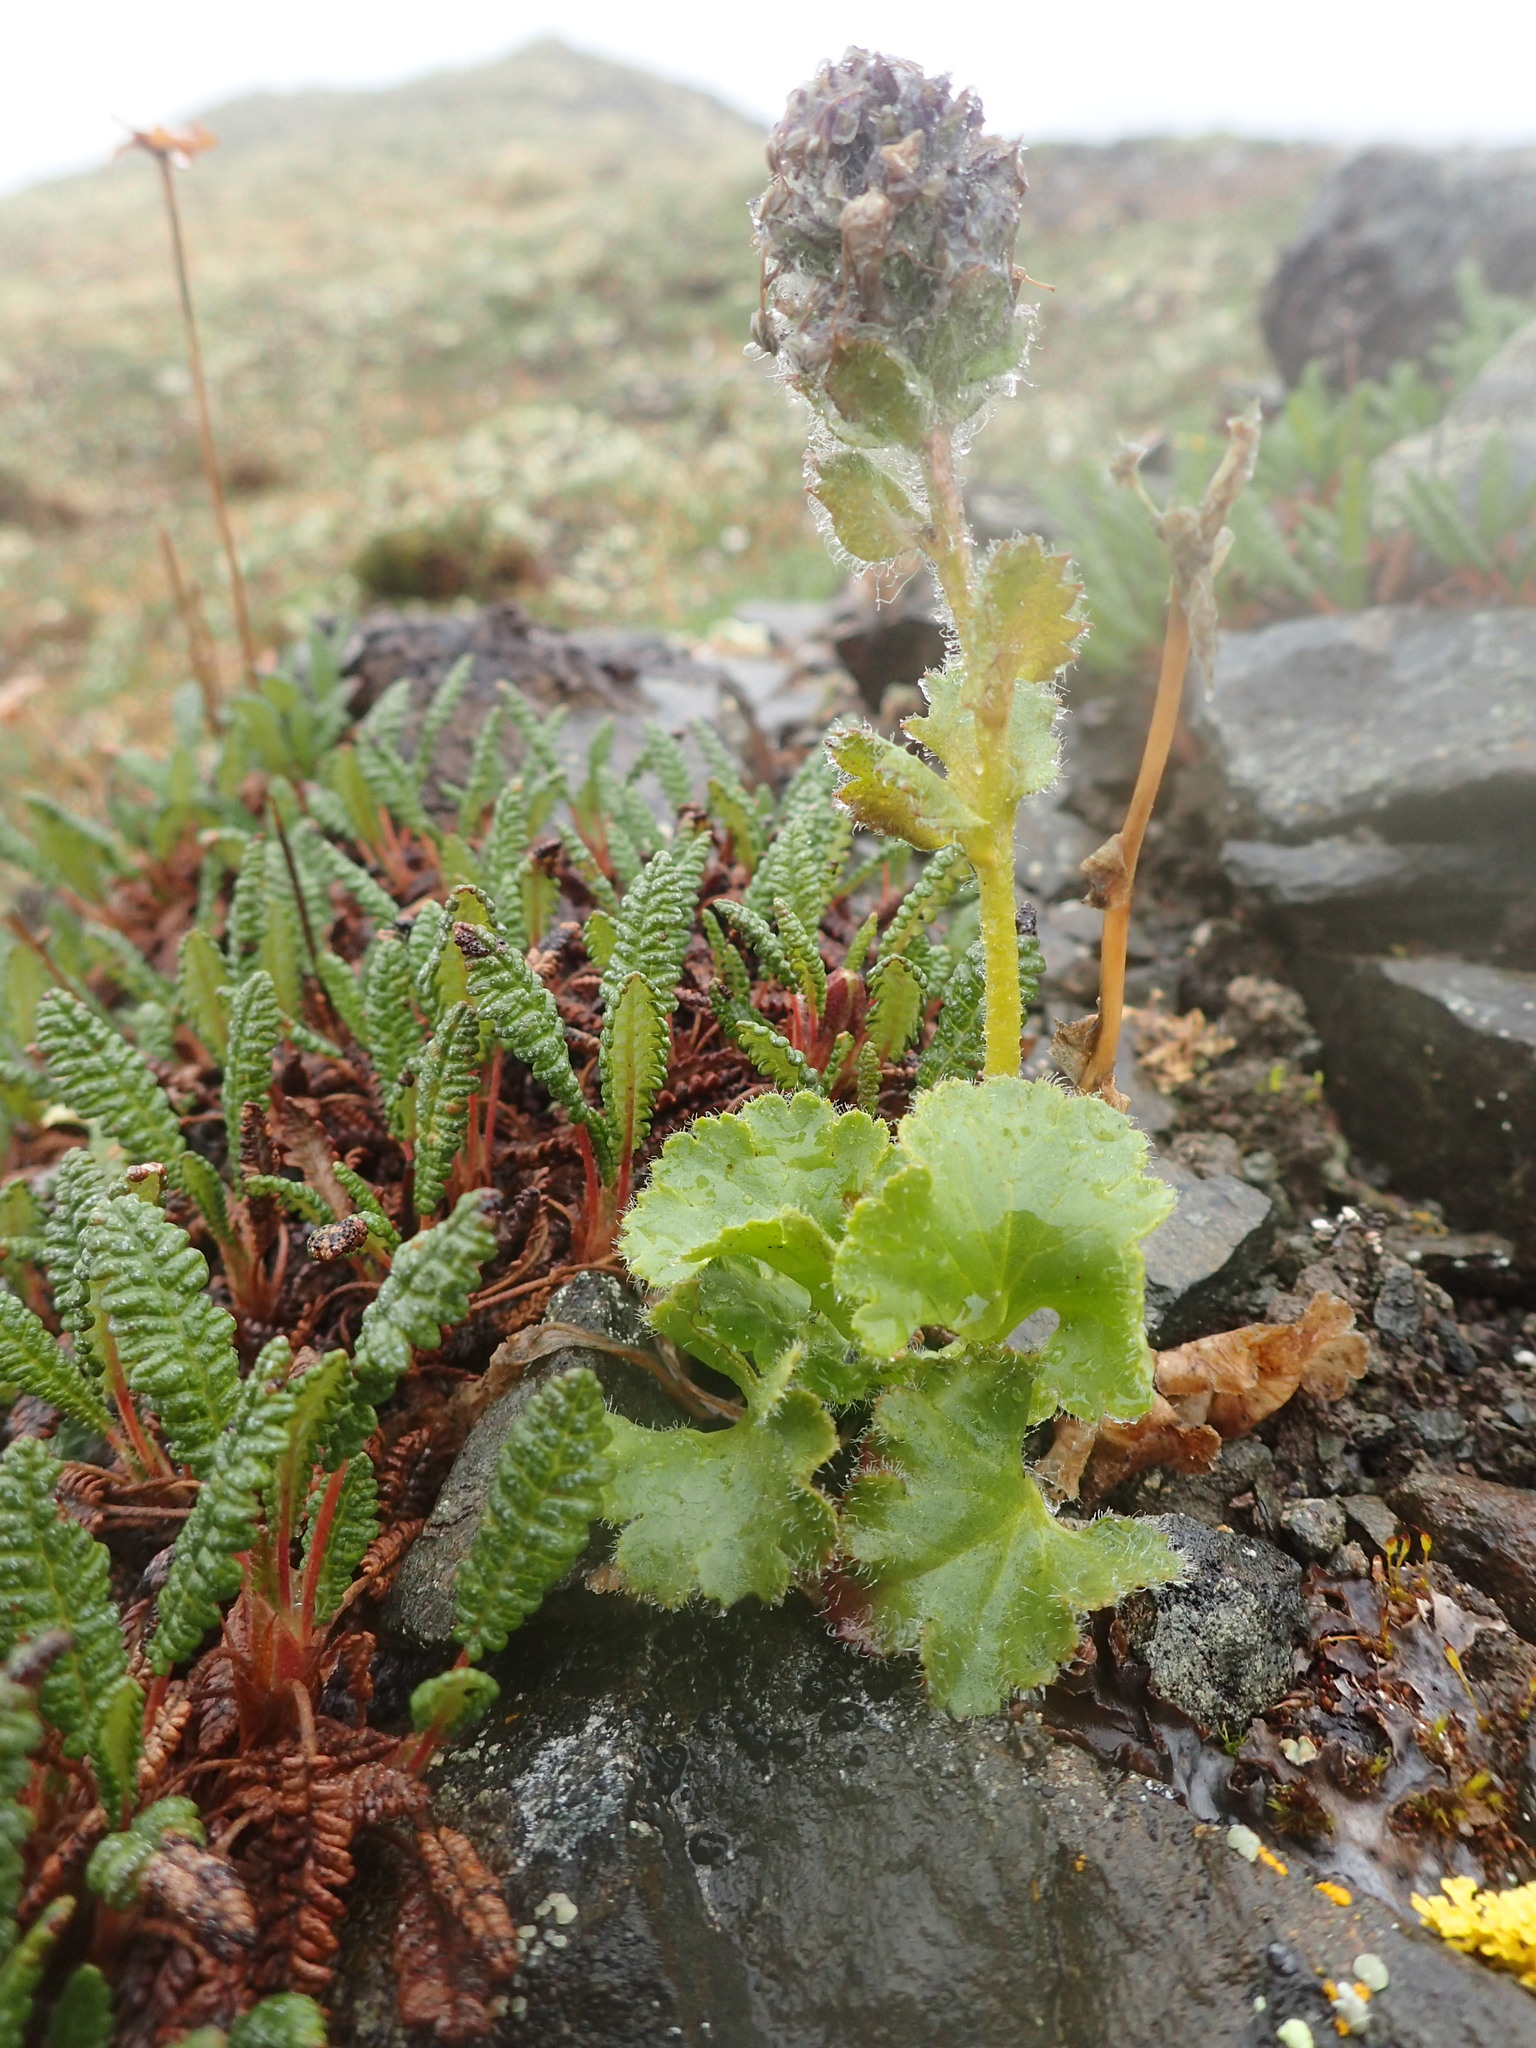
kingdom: Plantae
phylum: Tracheophyta
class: Magnoliopsida
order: Lamiales
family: Plantaginaceae
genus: Synthyris
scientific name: Synthyris borealis
